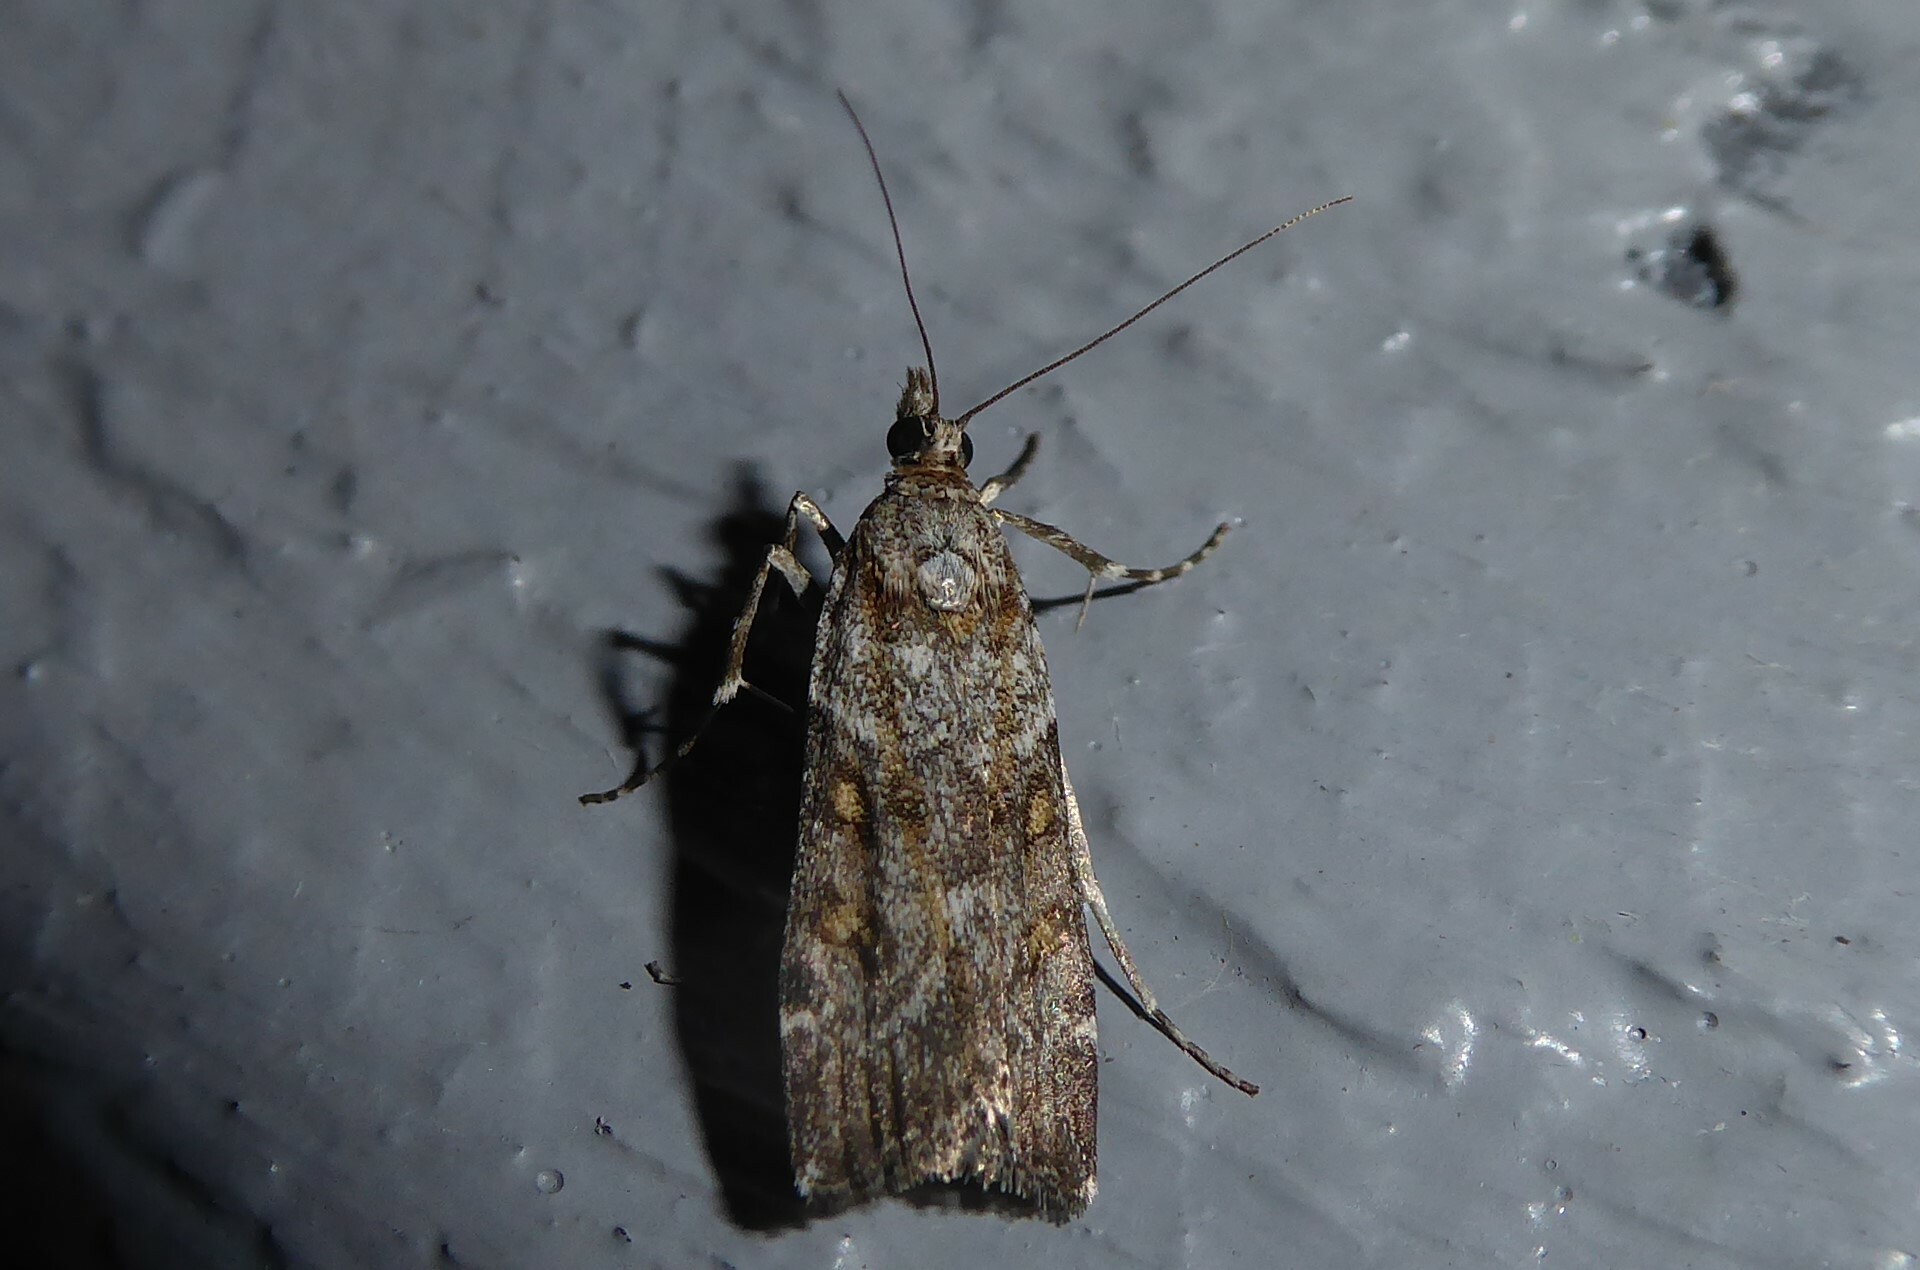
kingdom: Animalia
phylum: Arthropoda
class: Insecta
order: Lepidoptera
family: Crambidae
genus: Scoparia
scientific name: Scoparia tetracycla
